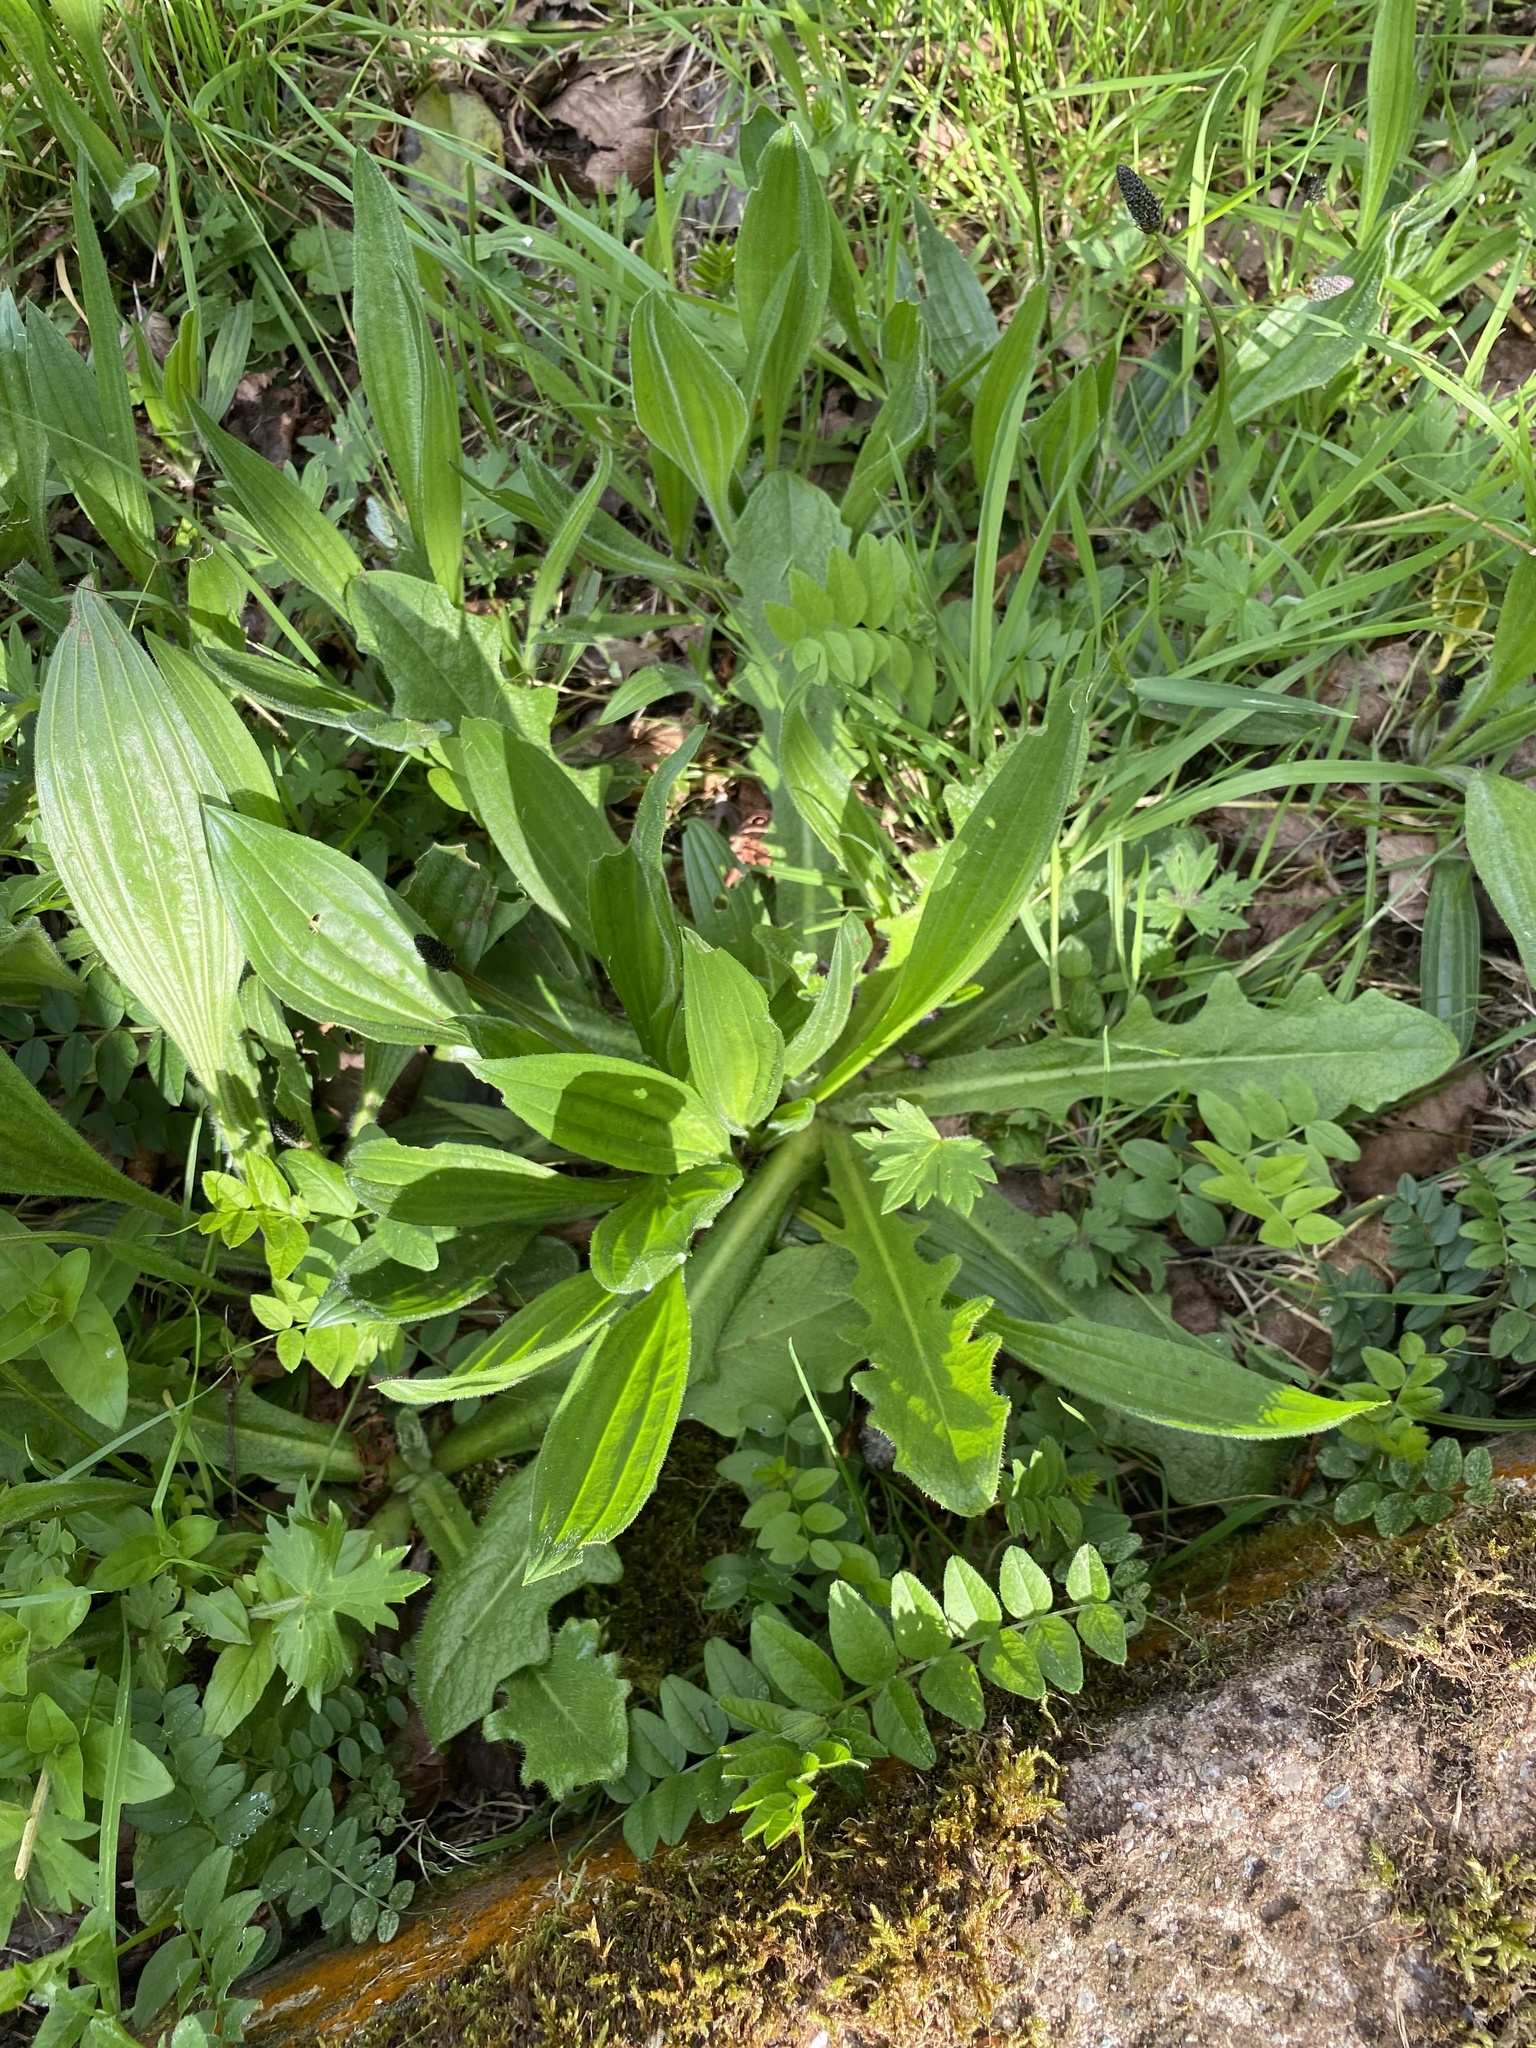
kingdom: Plantae
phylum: Tracheophyta
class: Magnoliopsida
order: Lamiales
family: Plantaginaceae
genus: Plantago
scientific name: Plantago lanceolata
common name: Ribwort plantain
